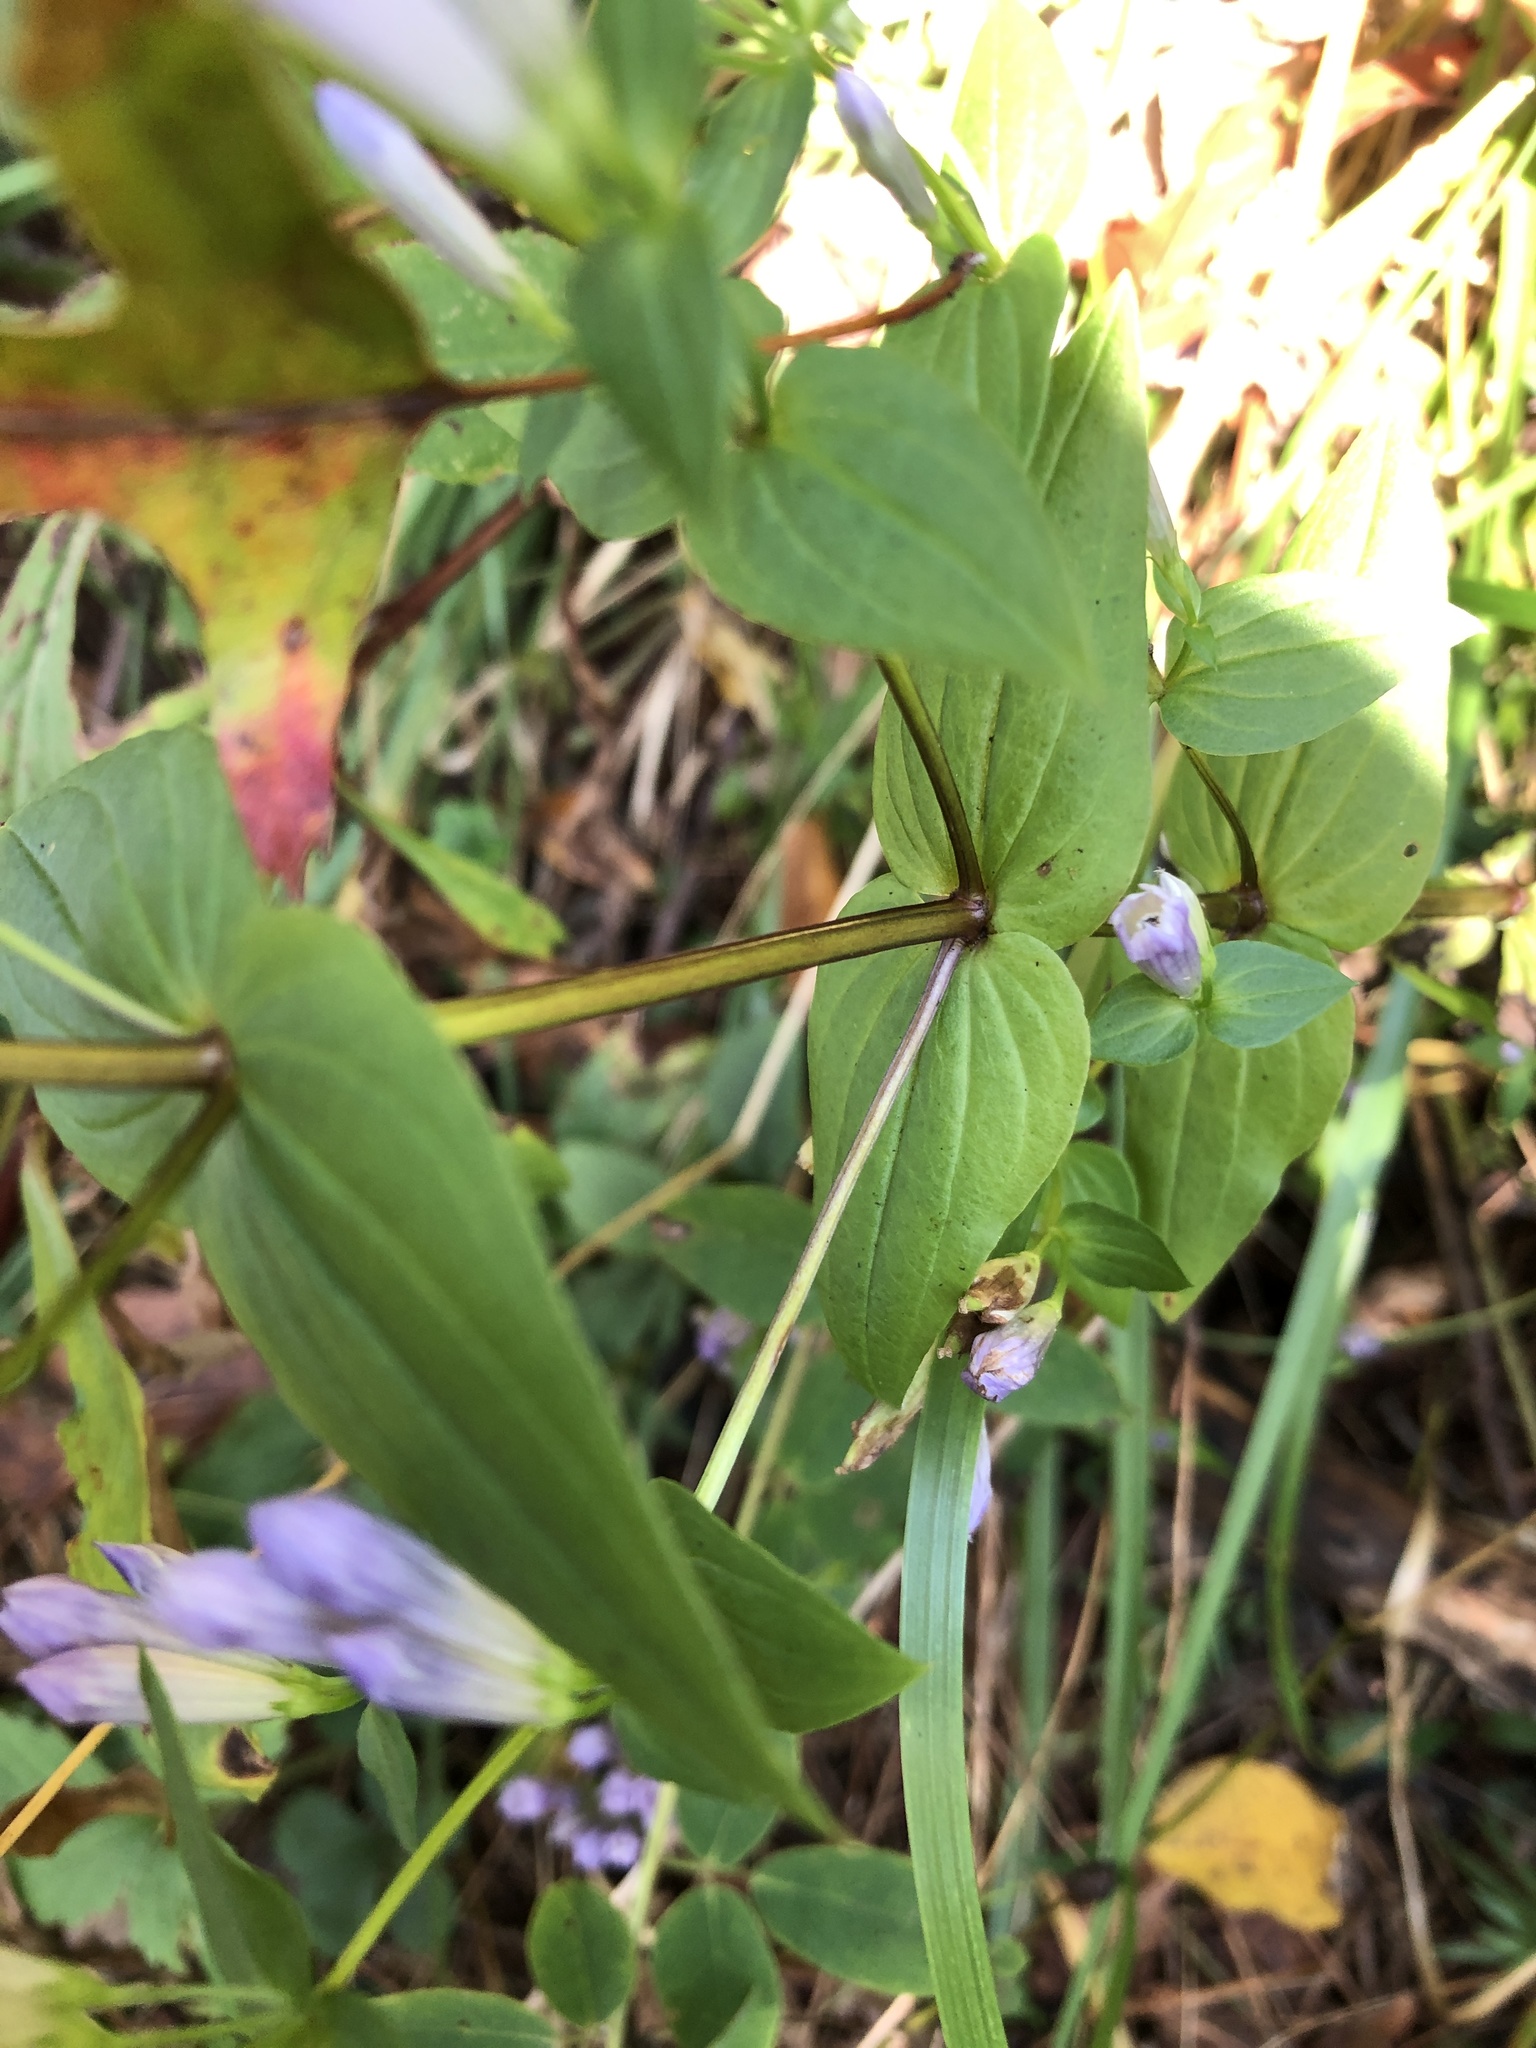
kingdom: Plantae
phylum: Tracheophyta
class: Magnoliopsida
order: Gentianales
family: Gentianaceae
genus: Gentianella
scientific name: Gentianella quinquefolia
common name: Agueweed
